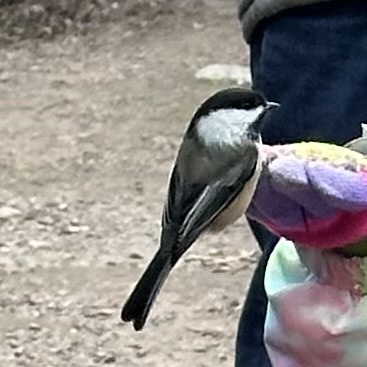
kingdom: Animalia
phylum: Chordata
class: Aves
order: Passeriformes
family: Paridae
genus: Poecile
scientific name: Poecile atricapillus
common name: Black-capped chickadee
